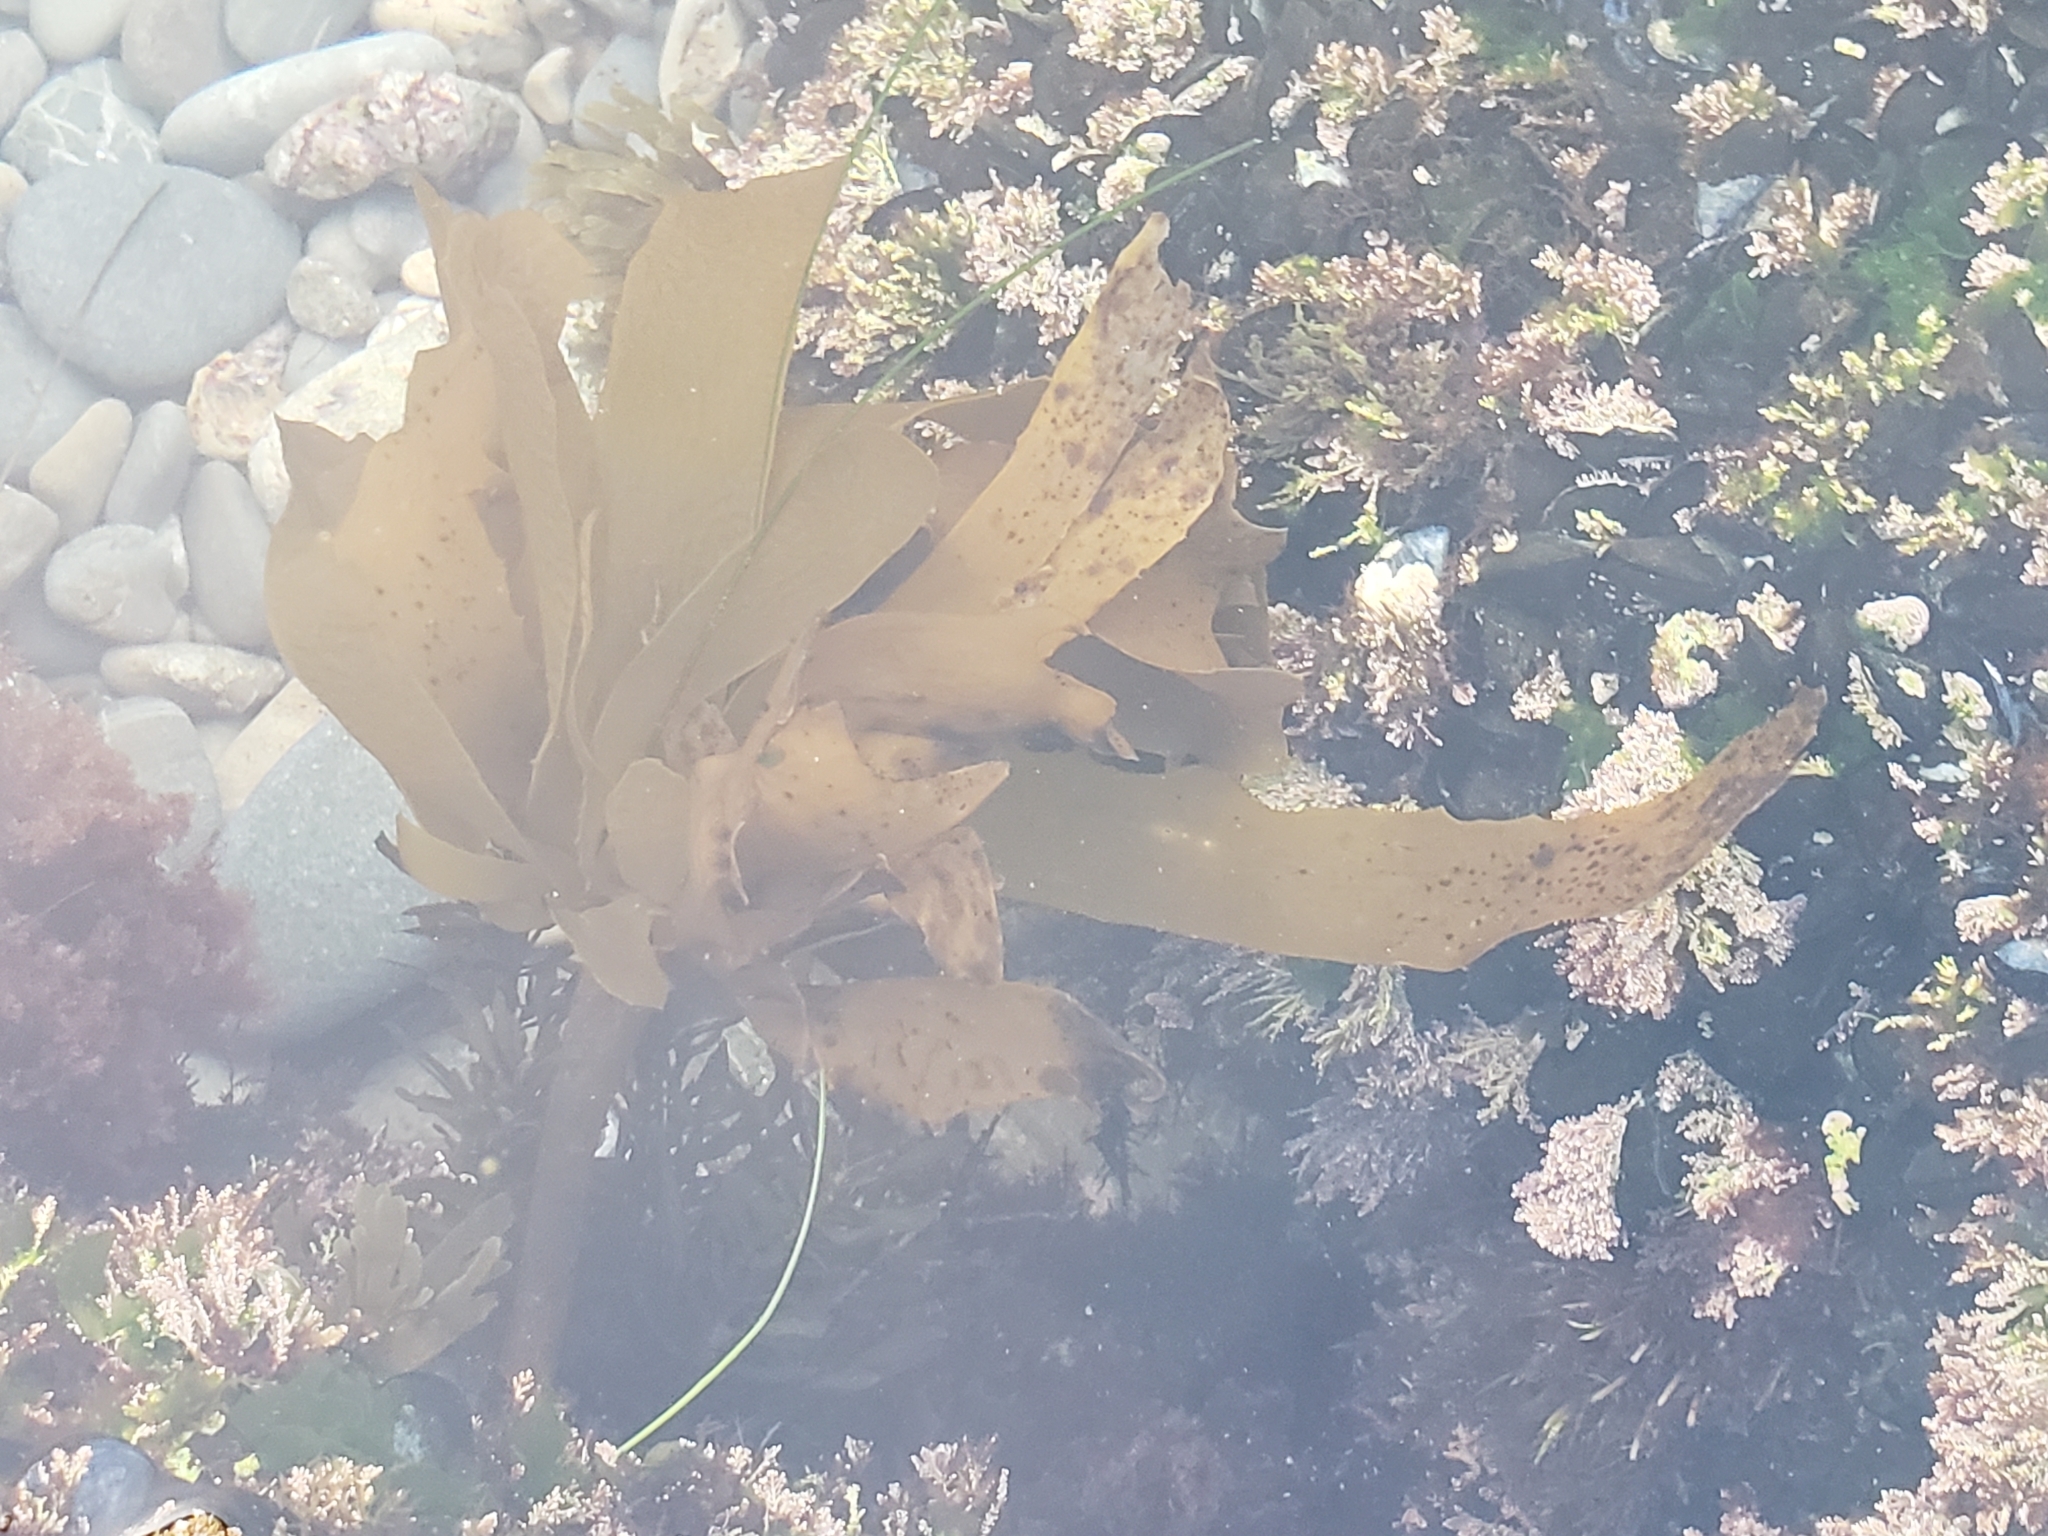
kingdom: Chromista
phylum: Ochrophyta
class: Phaeophyceae
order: Laminariales
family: Lessoniaceae
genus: Eisenia
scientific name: Eisenia arborea
